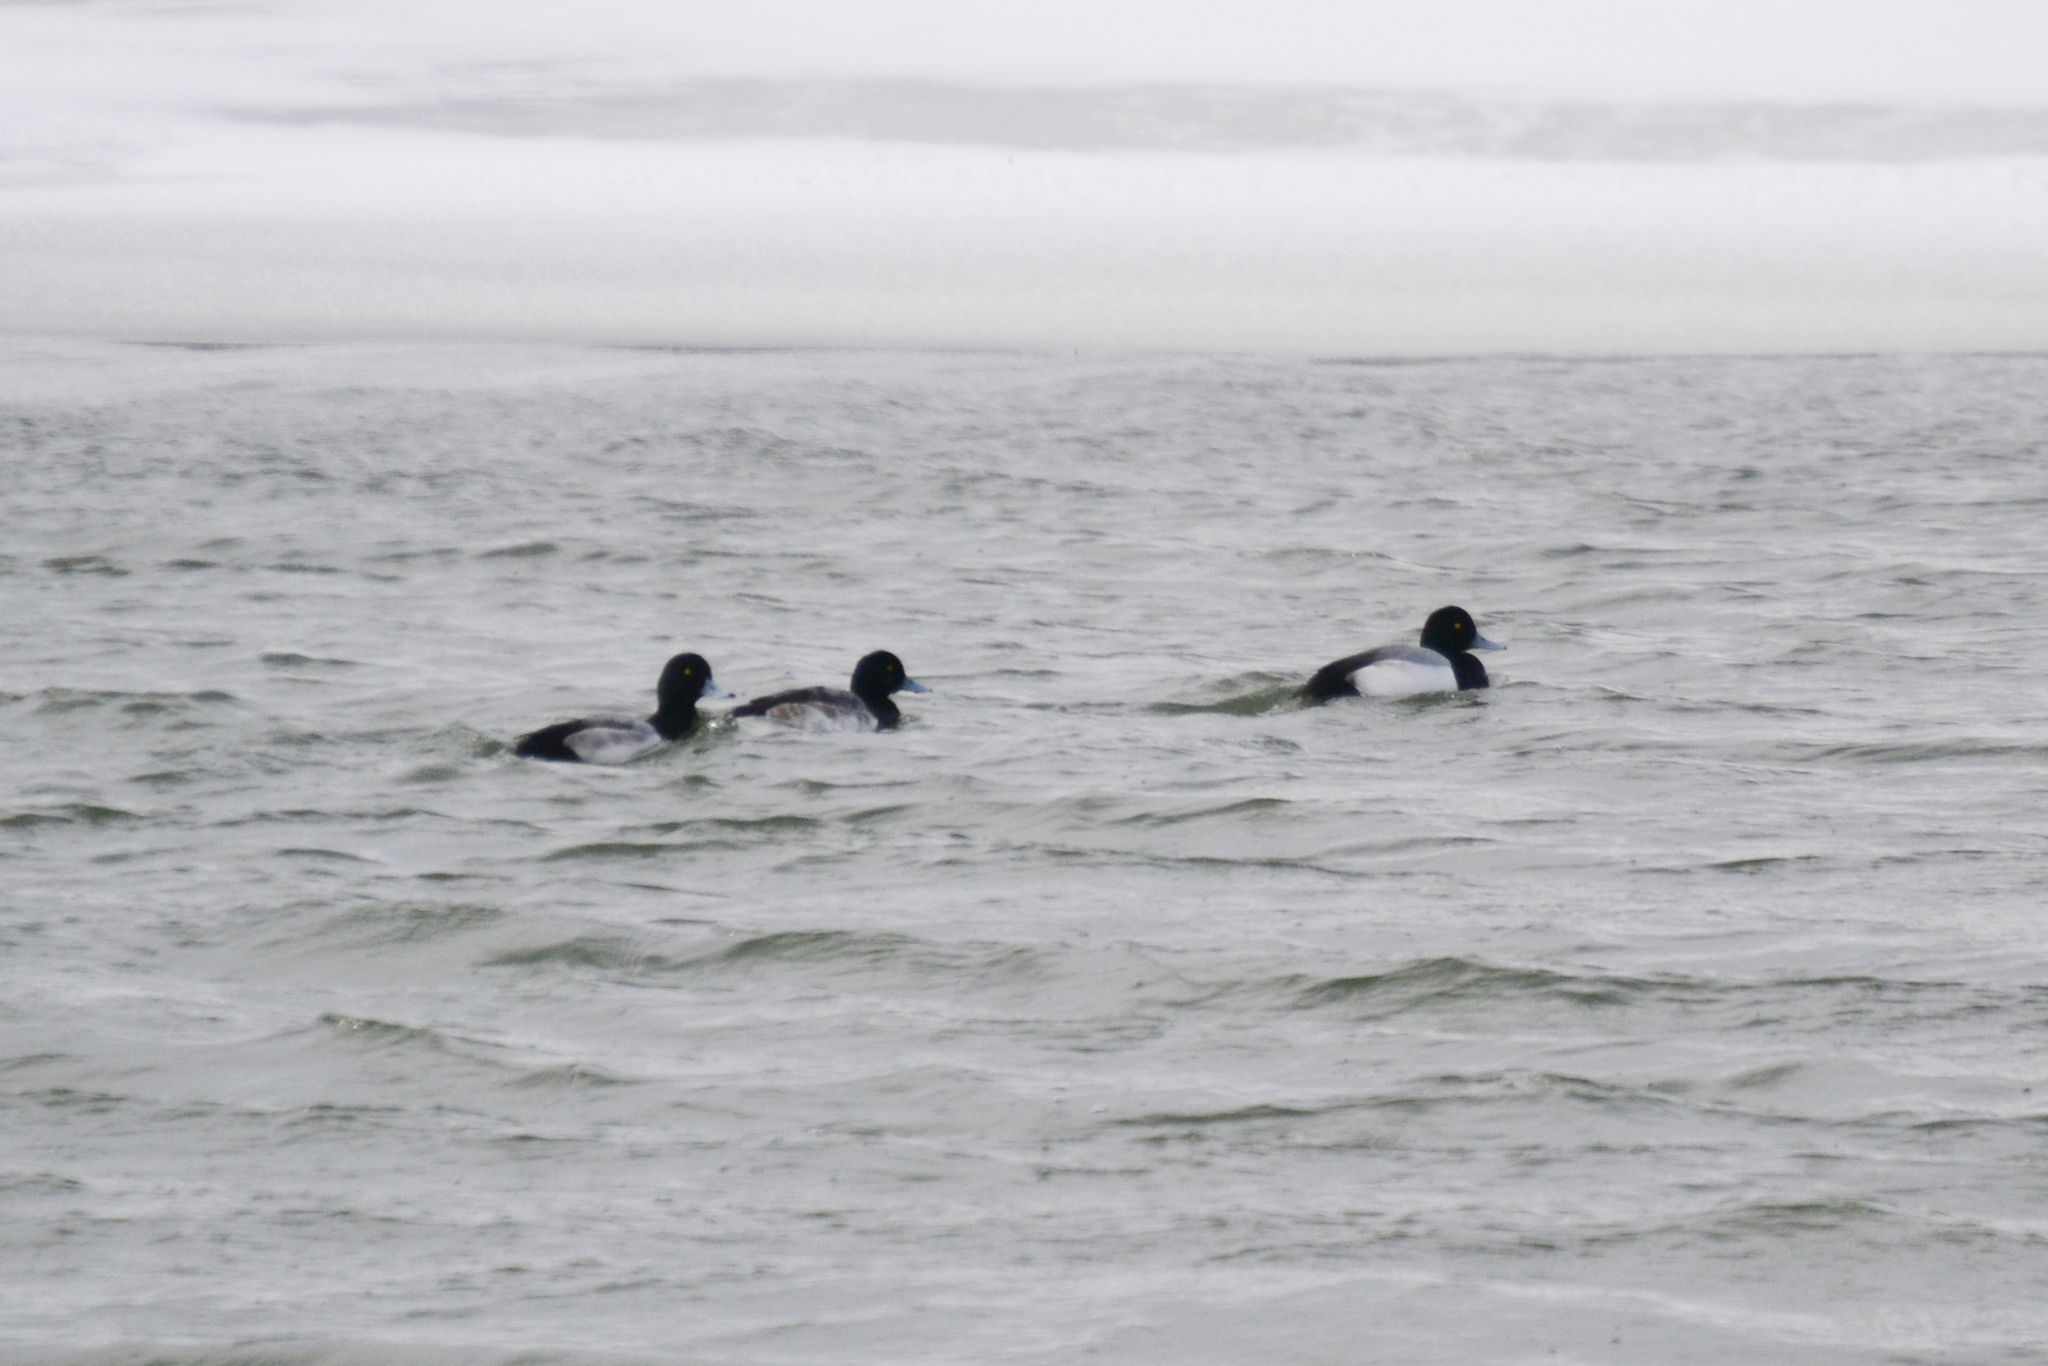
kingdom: Animalia
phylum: Chordata
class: Aves
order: Anseriformes
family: Anatidae
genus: Aythya
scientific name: Aythya marila
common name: Greater scaup
